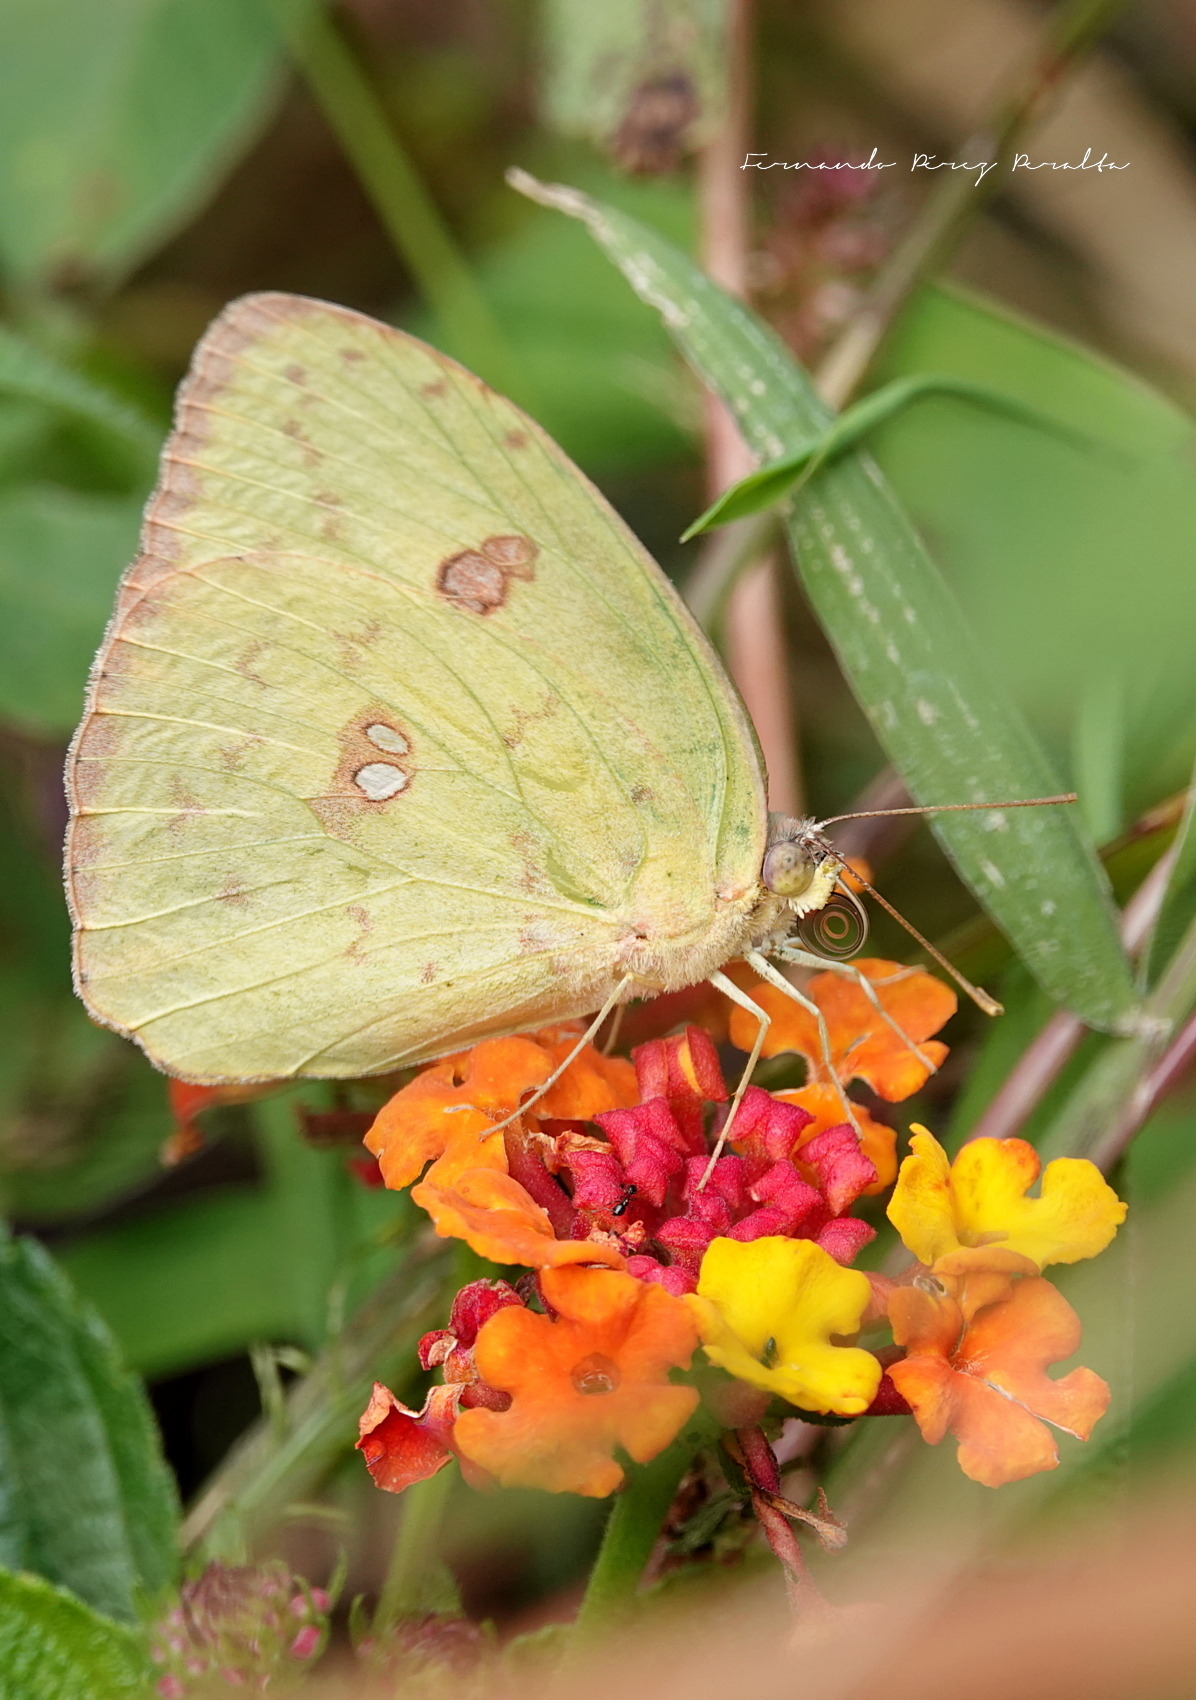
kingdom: Animalia
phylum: Arthropoda
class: Insecta
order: Lepidoptera
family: Pieridae
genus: Phoebis
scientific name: Phoebis sennae
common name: Cloudless sulphur
